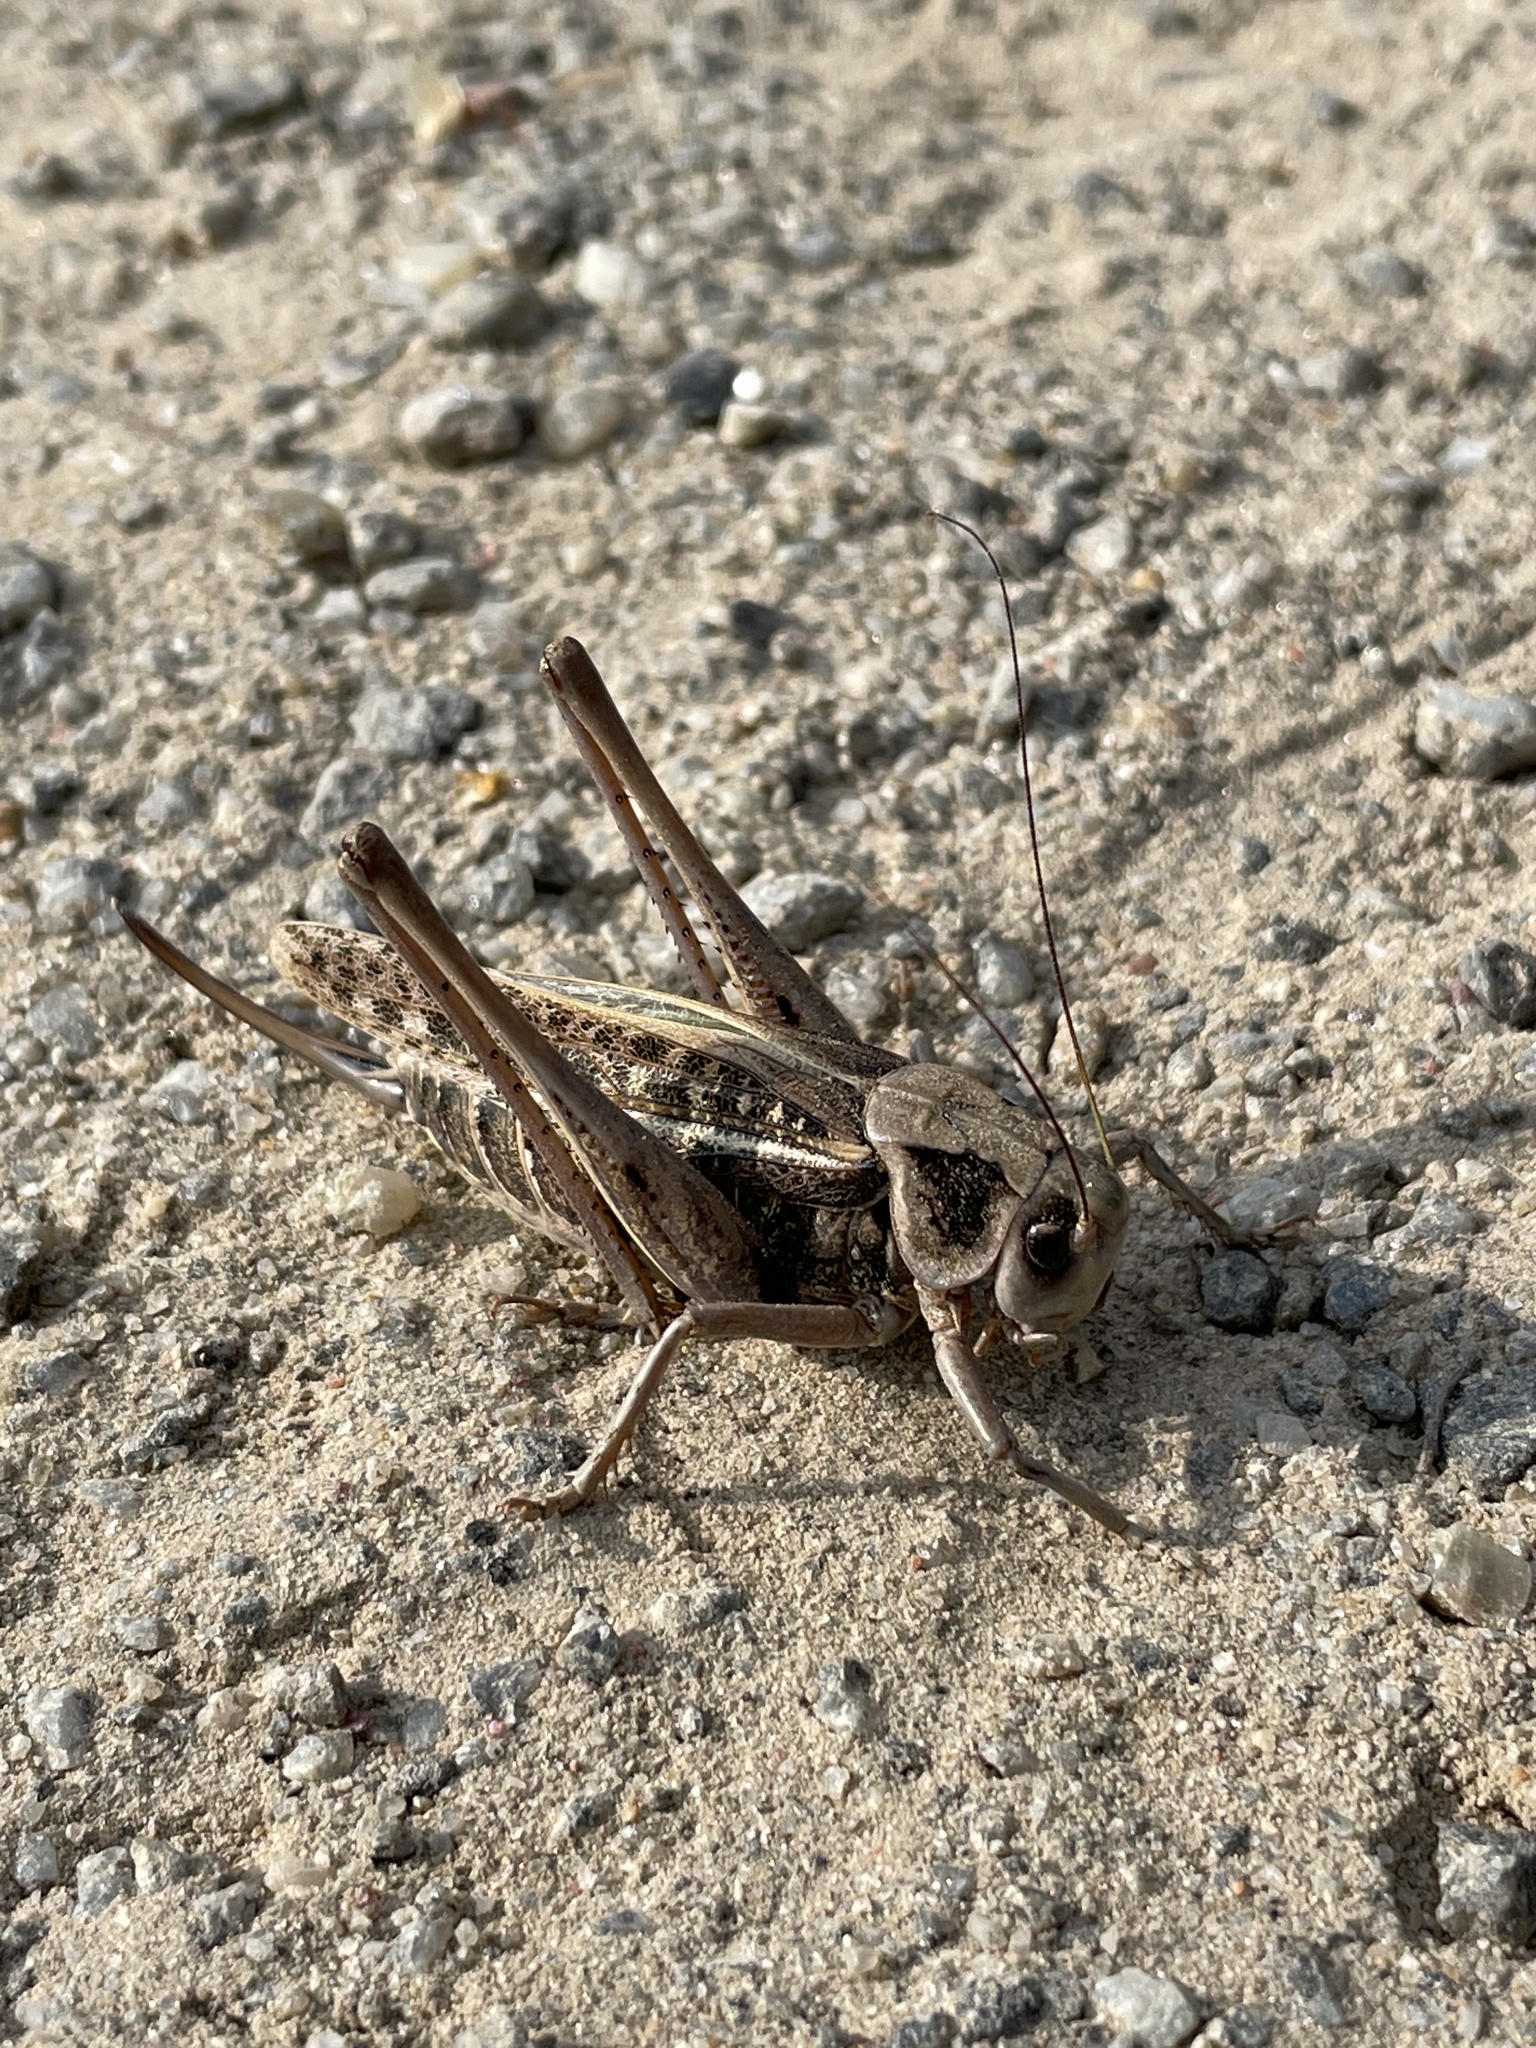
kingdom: Animalia
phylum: Arthropoda
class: Insecta
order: Orthoptera
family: Tettigoniidae
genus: Decticus
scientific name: Decticus verrucivorus
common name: Wart-biter
